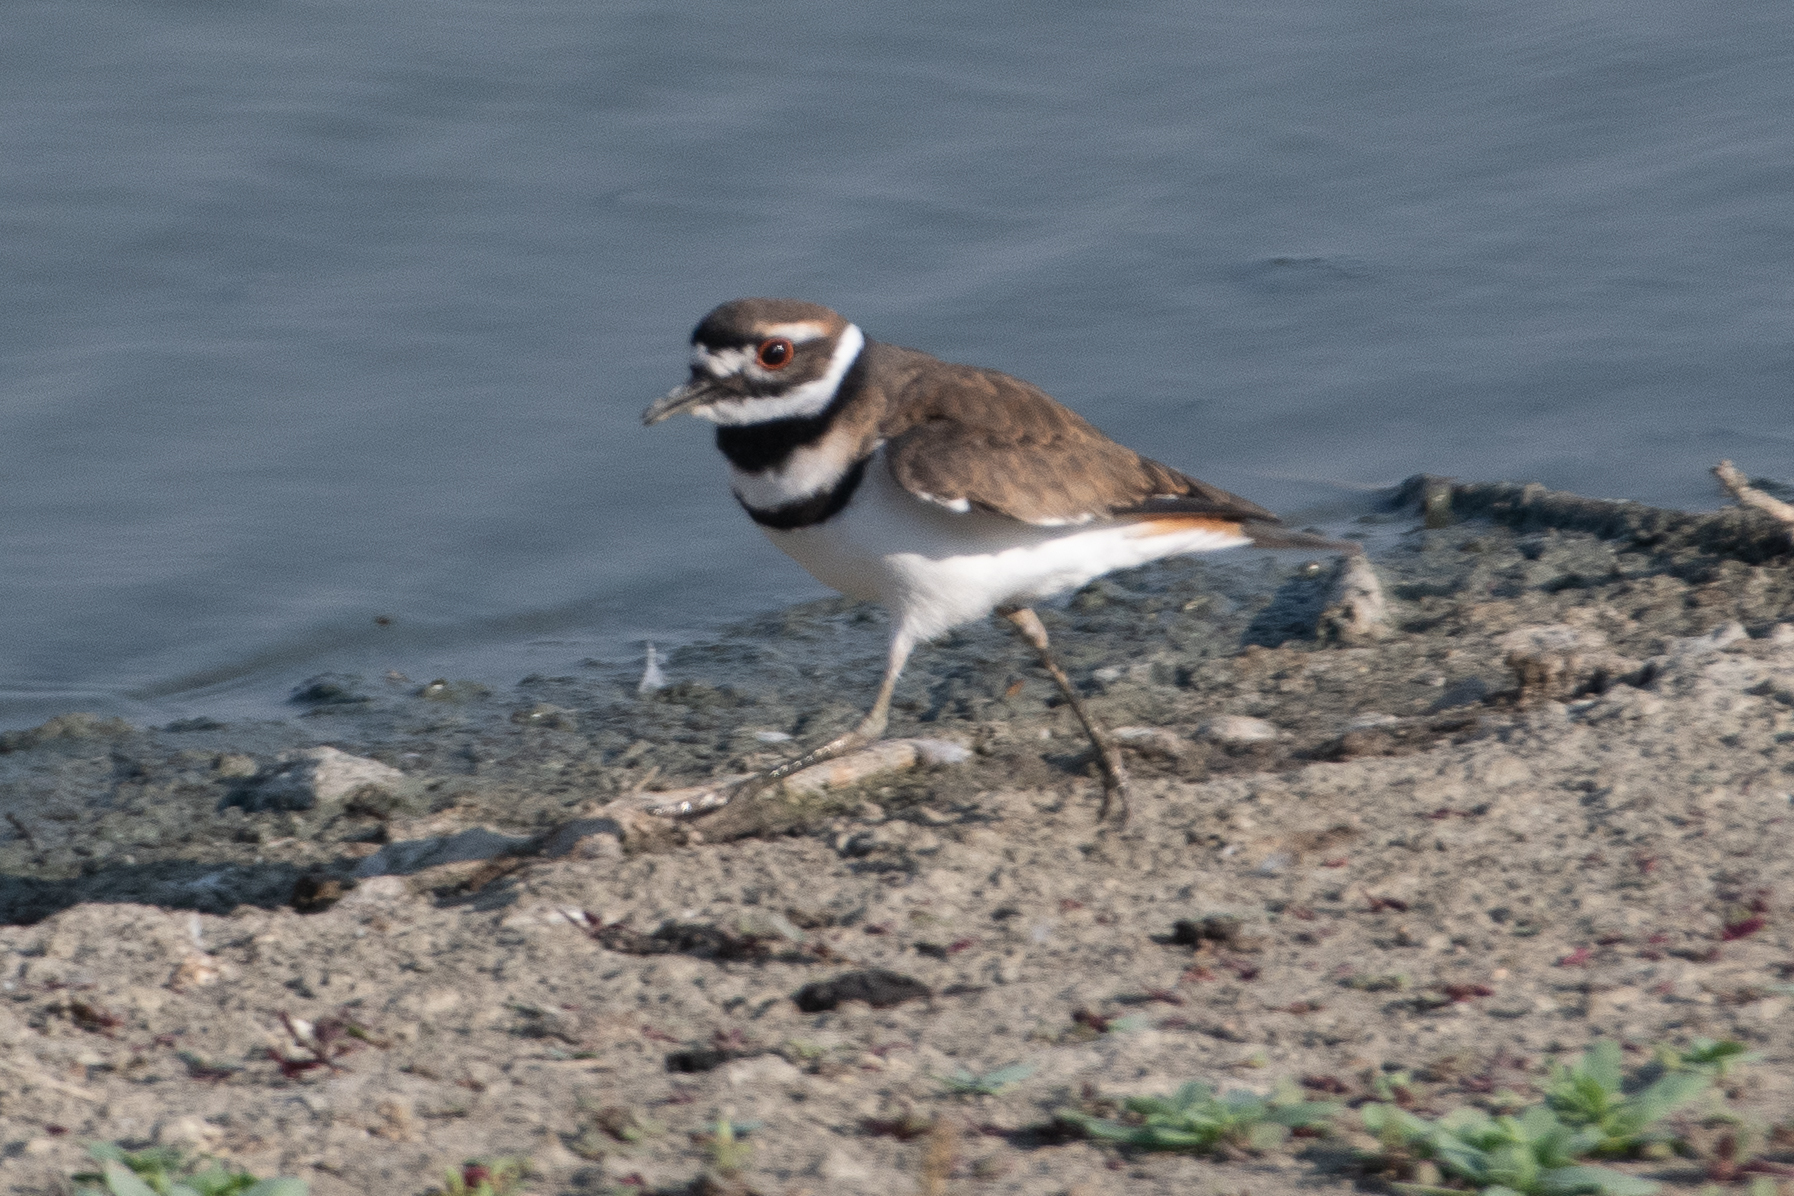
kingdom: Animalia
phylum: Chordata
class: Aves
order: Charadriiformes
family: Charadriidae
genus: Charadrius
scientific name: Charadrius vociferus
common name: Killdeer
